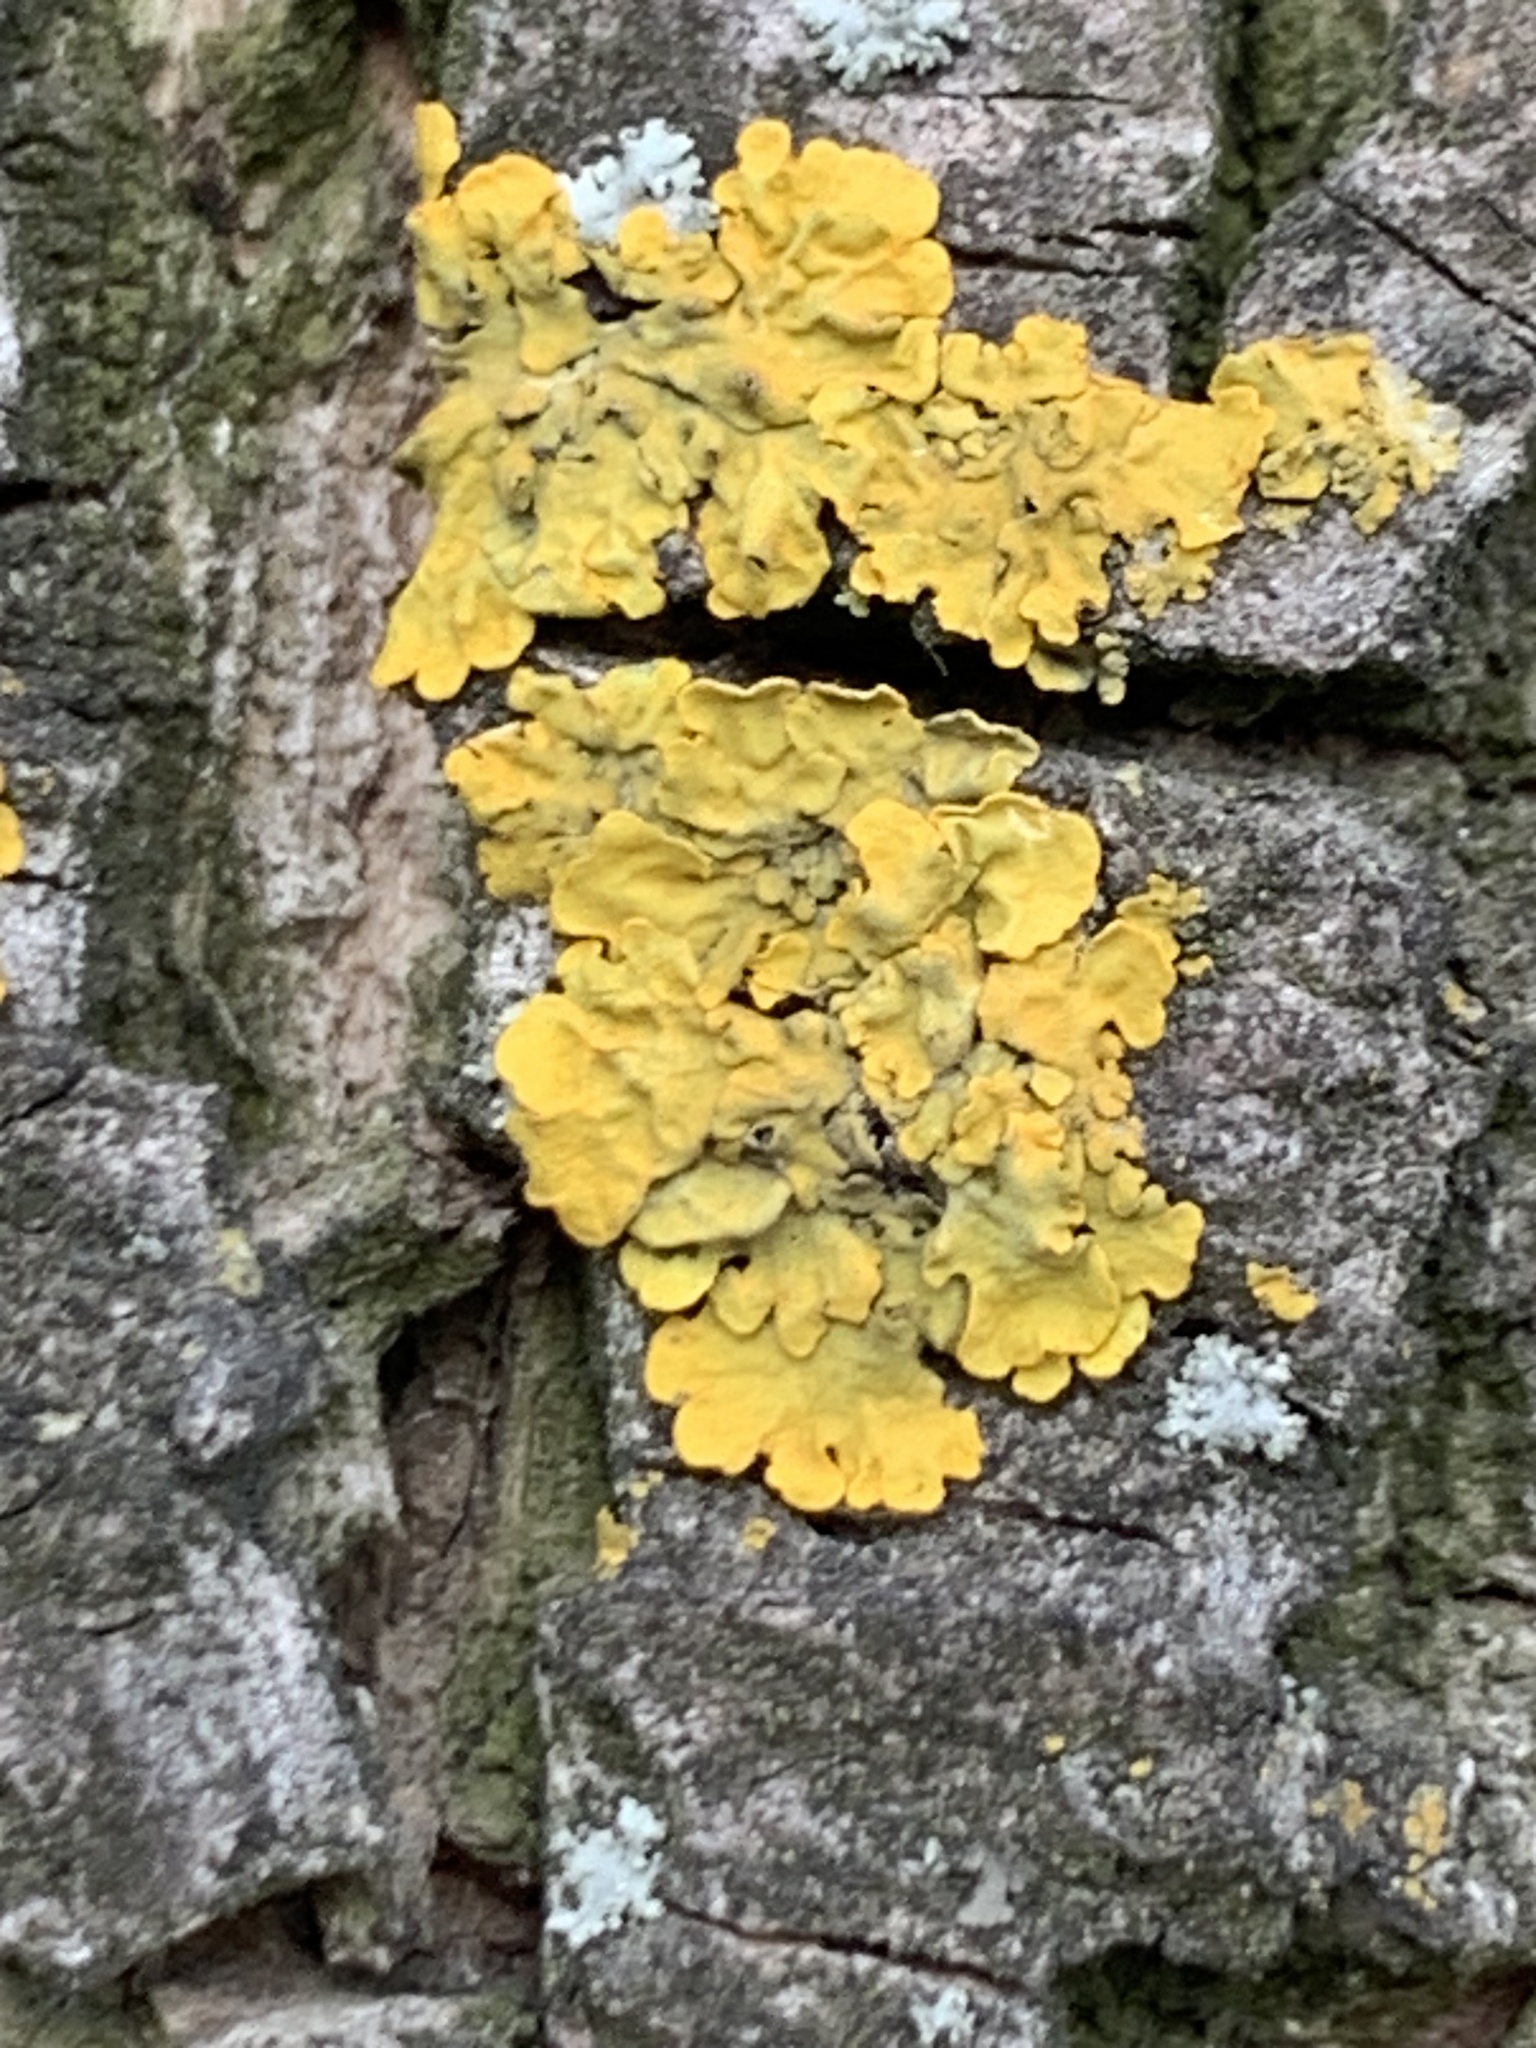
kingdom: Fungi
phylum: Ascomycota
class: Lecanoromycetes
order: Teloschistales
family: Teloschistaceae
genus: Xanthoria
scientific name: Xanthoria parietina
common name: Common orange lichen
